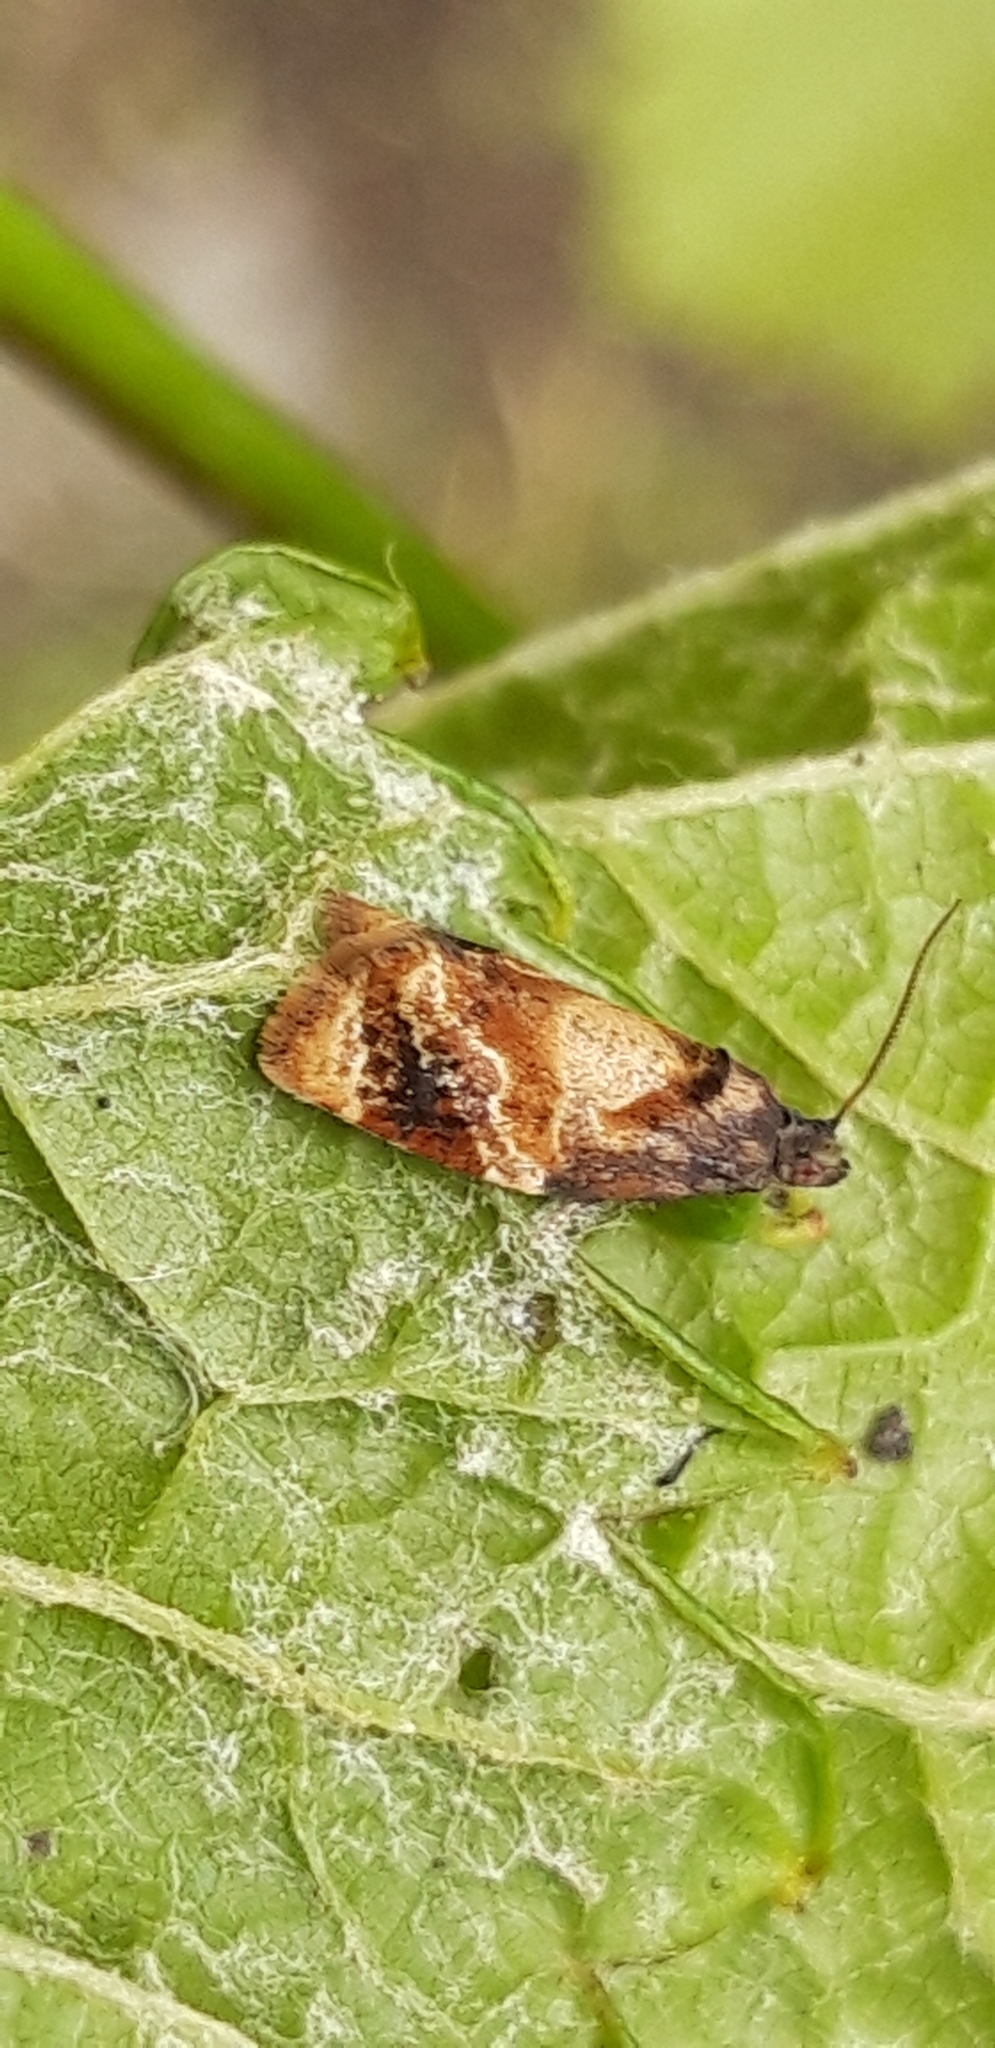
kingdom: Animalia
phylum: Arthropoda
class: Insecta
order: Lepidoptera
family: Tortricidae
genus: Ditula
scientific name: Ditula angustiorana
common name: Red-barred tortrix
